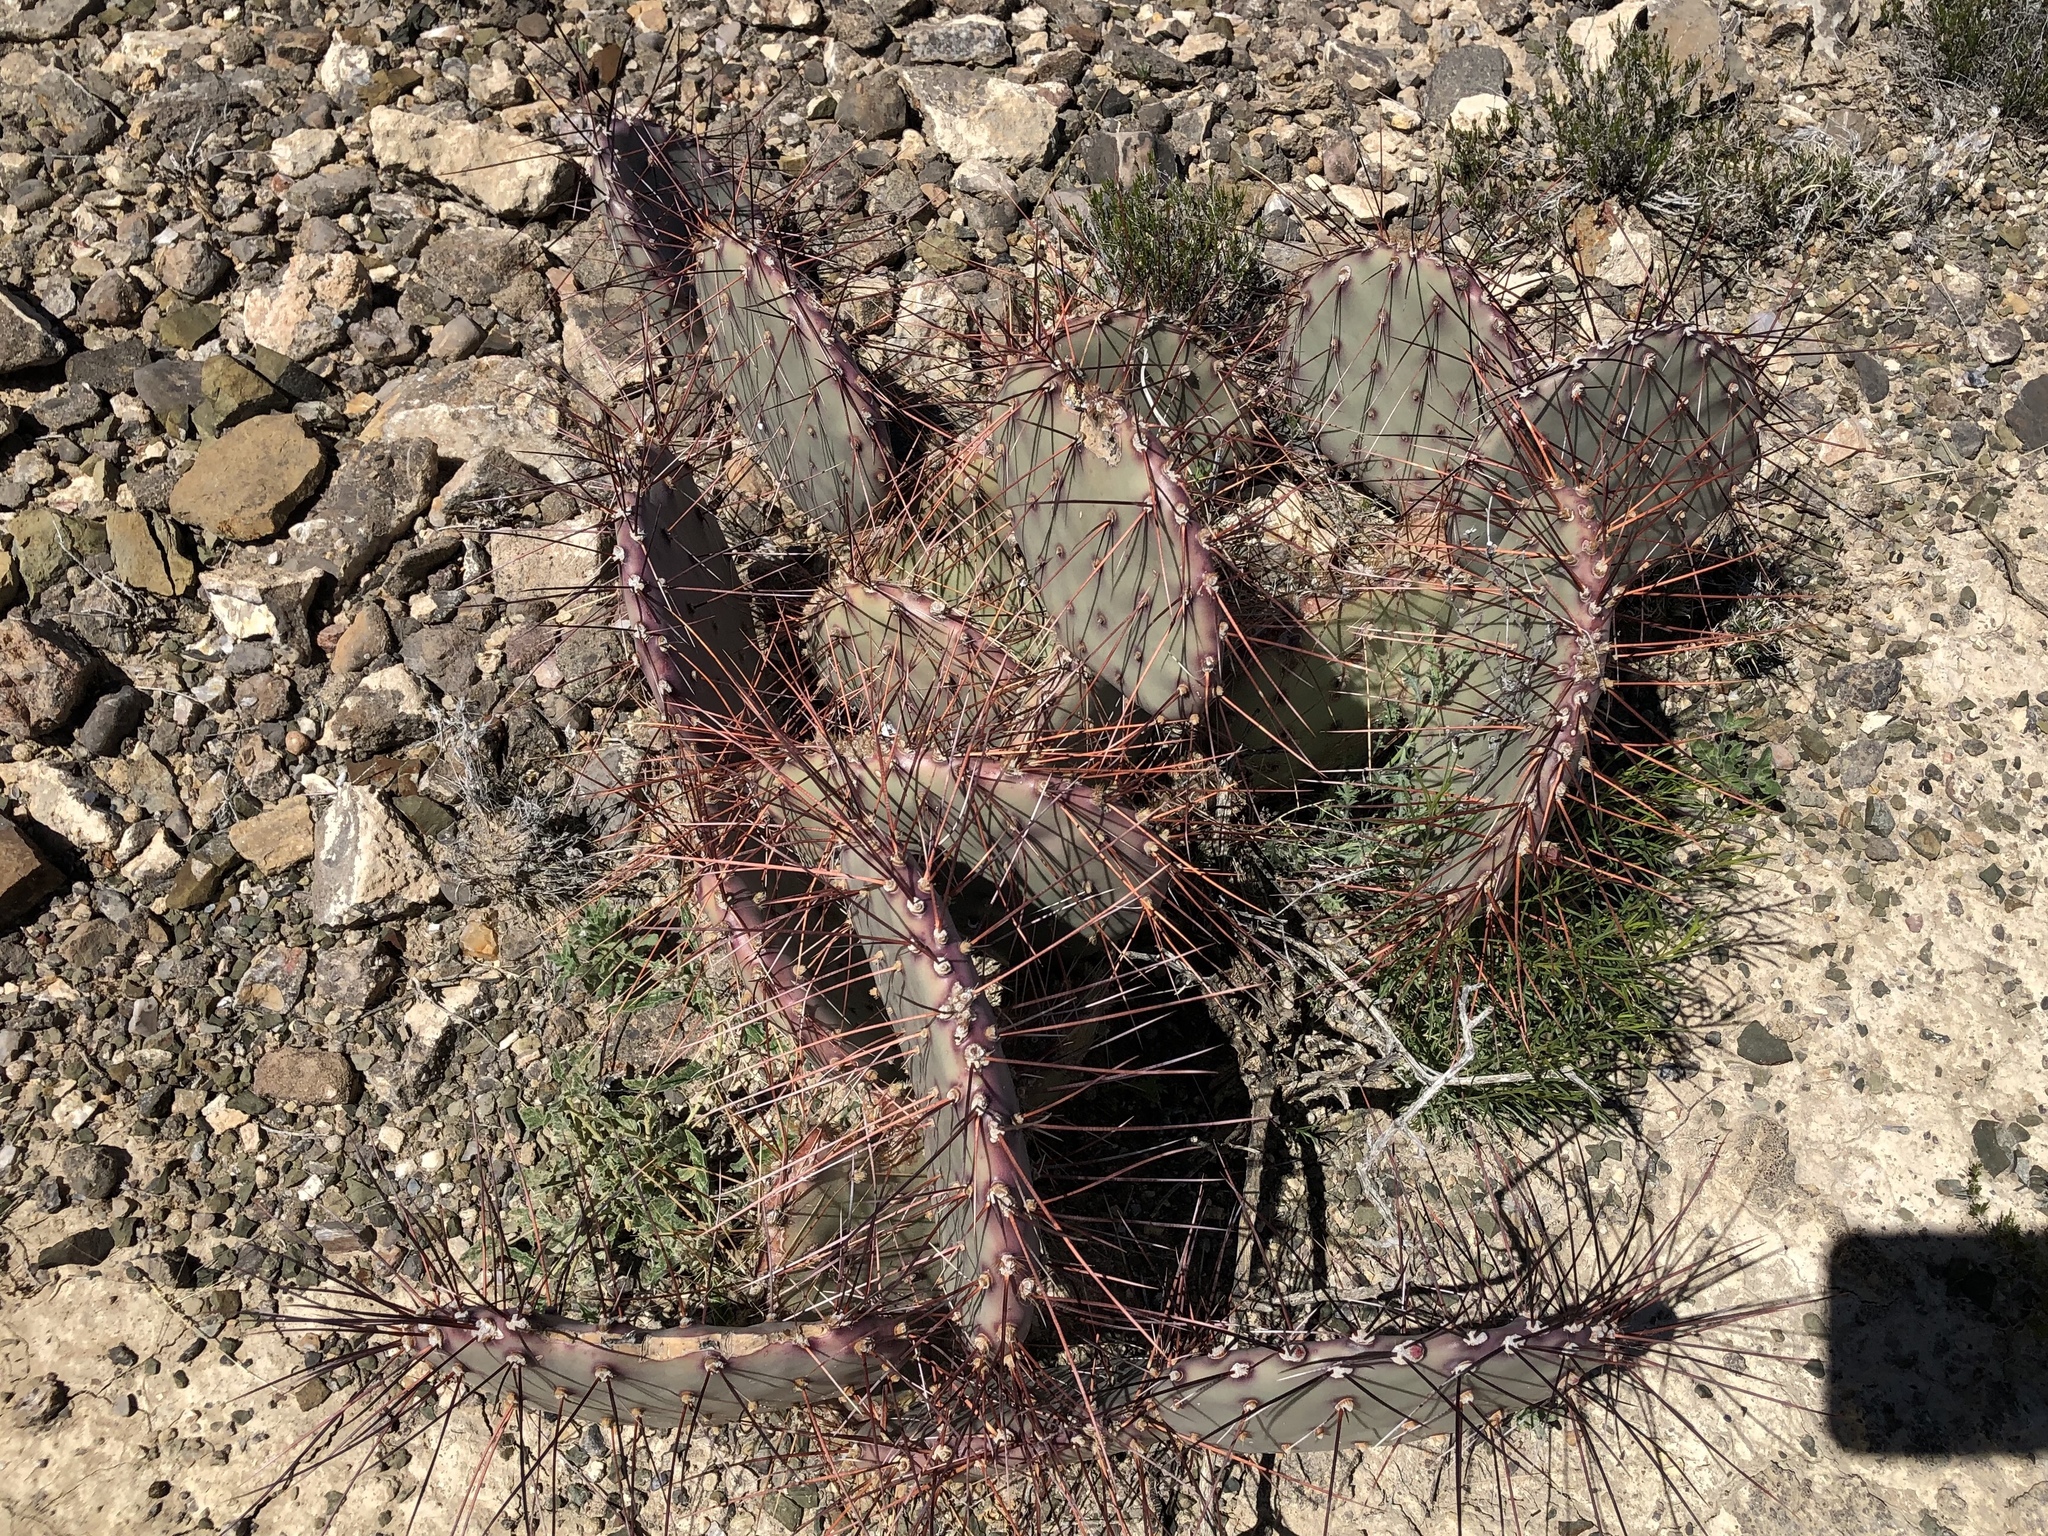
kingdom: Plantae
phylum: Tracheophyta
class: Magnoliopsida
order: Caryophyllales
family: Cactaceae
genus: Opuntia
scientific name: Opuntia macrocentra
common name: Purple prickly-pear
